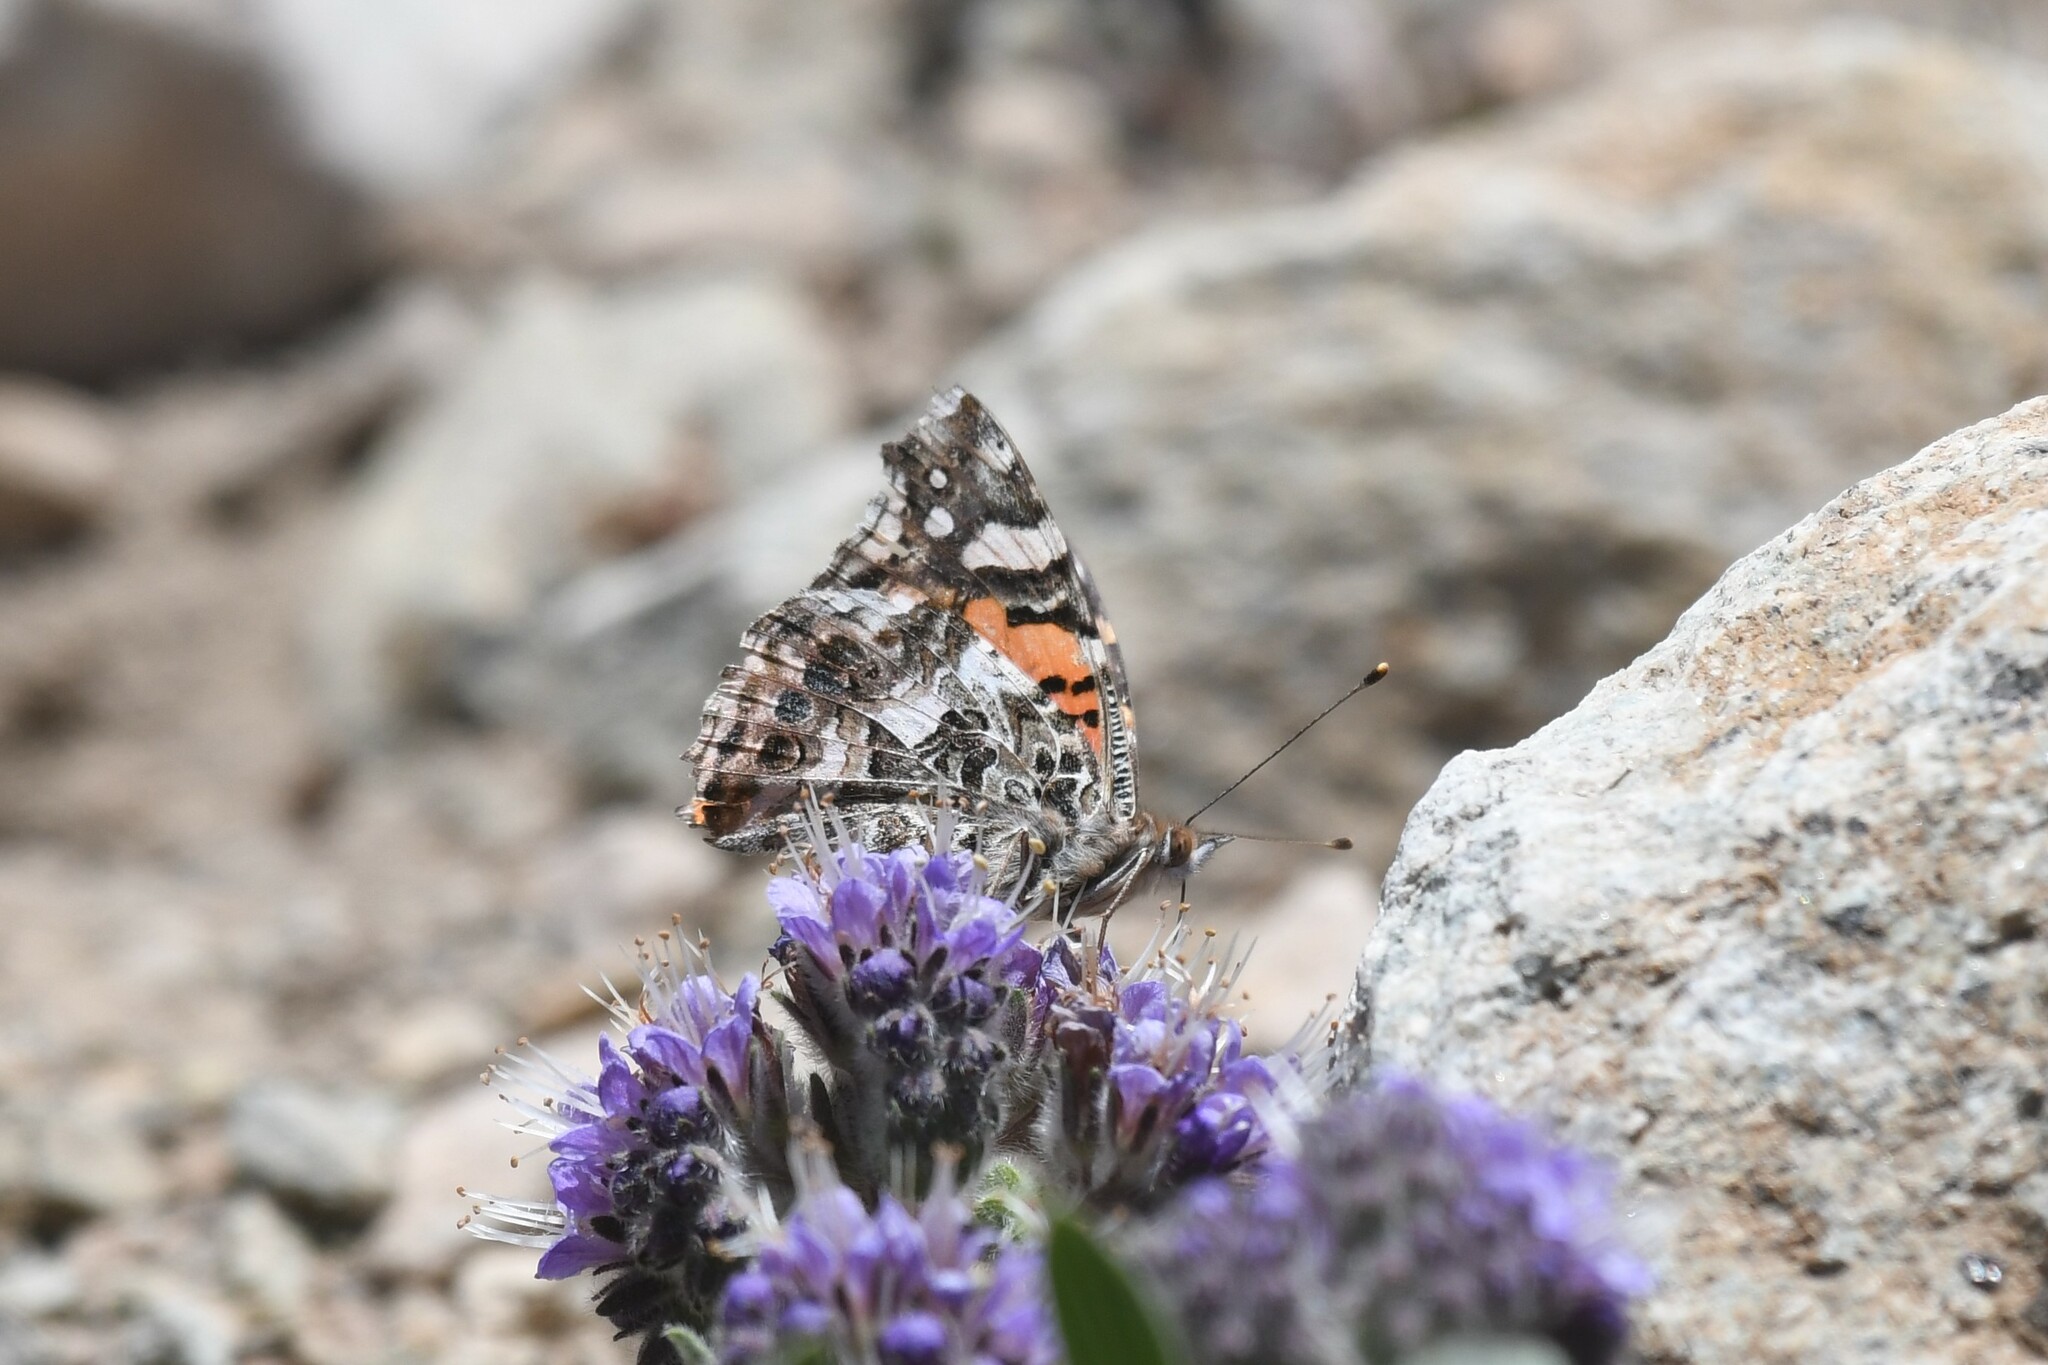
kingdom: Animalia
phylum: Arthropoda
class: Insecta
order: Lepidoptera
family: Nymphalidae
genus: Vanessa
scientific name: Vanessa carye
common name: Subtropical lady
